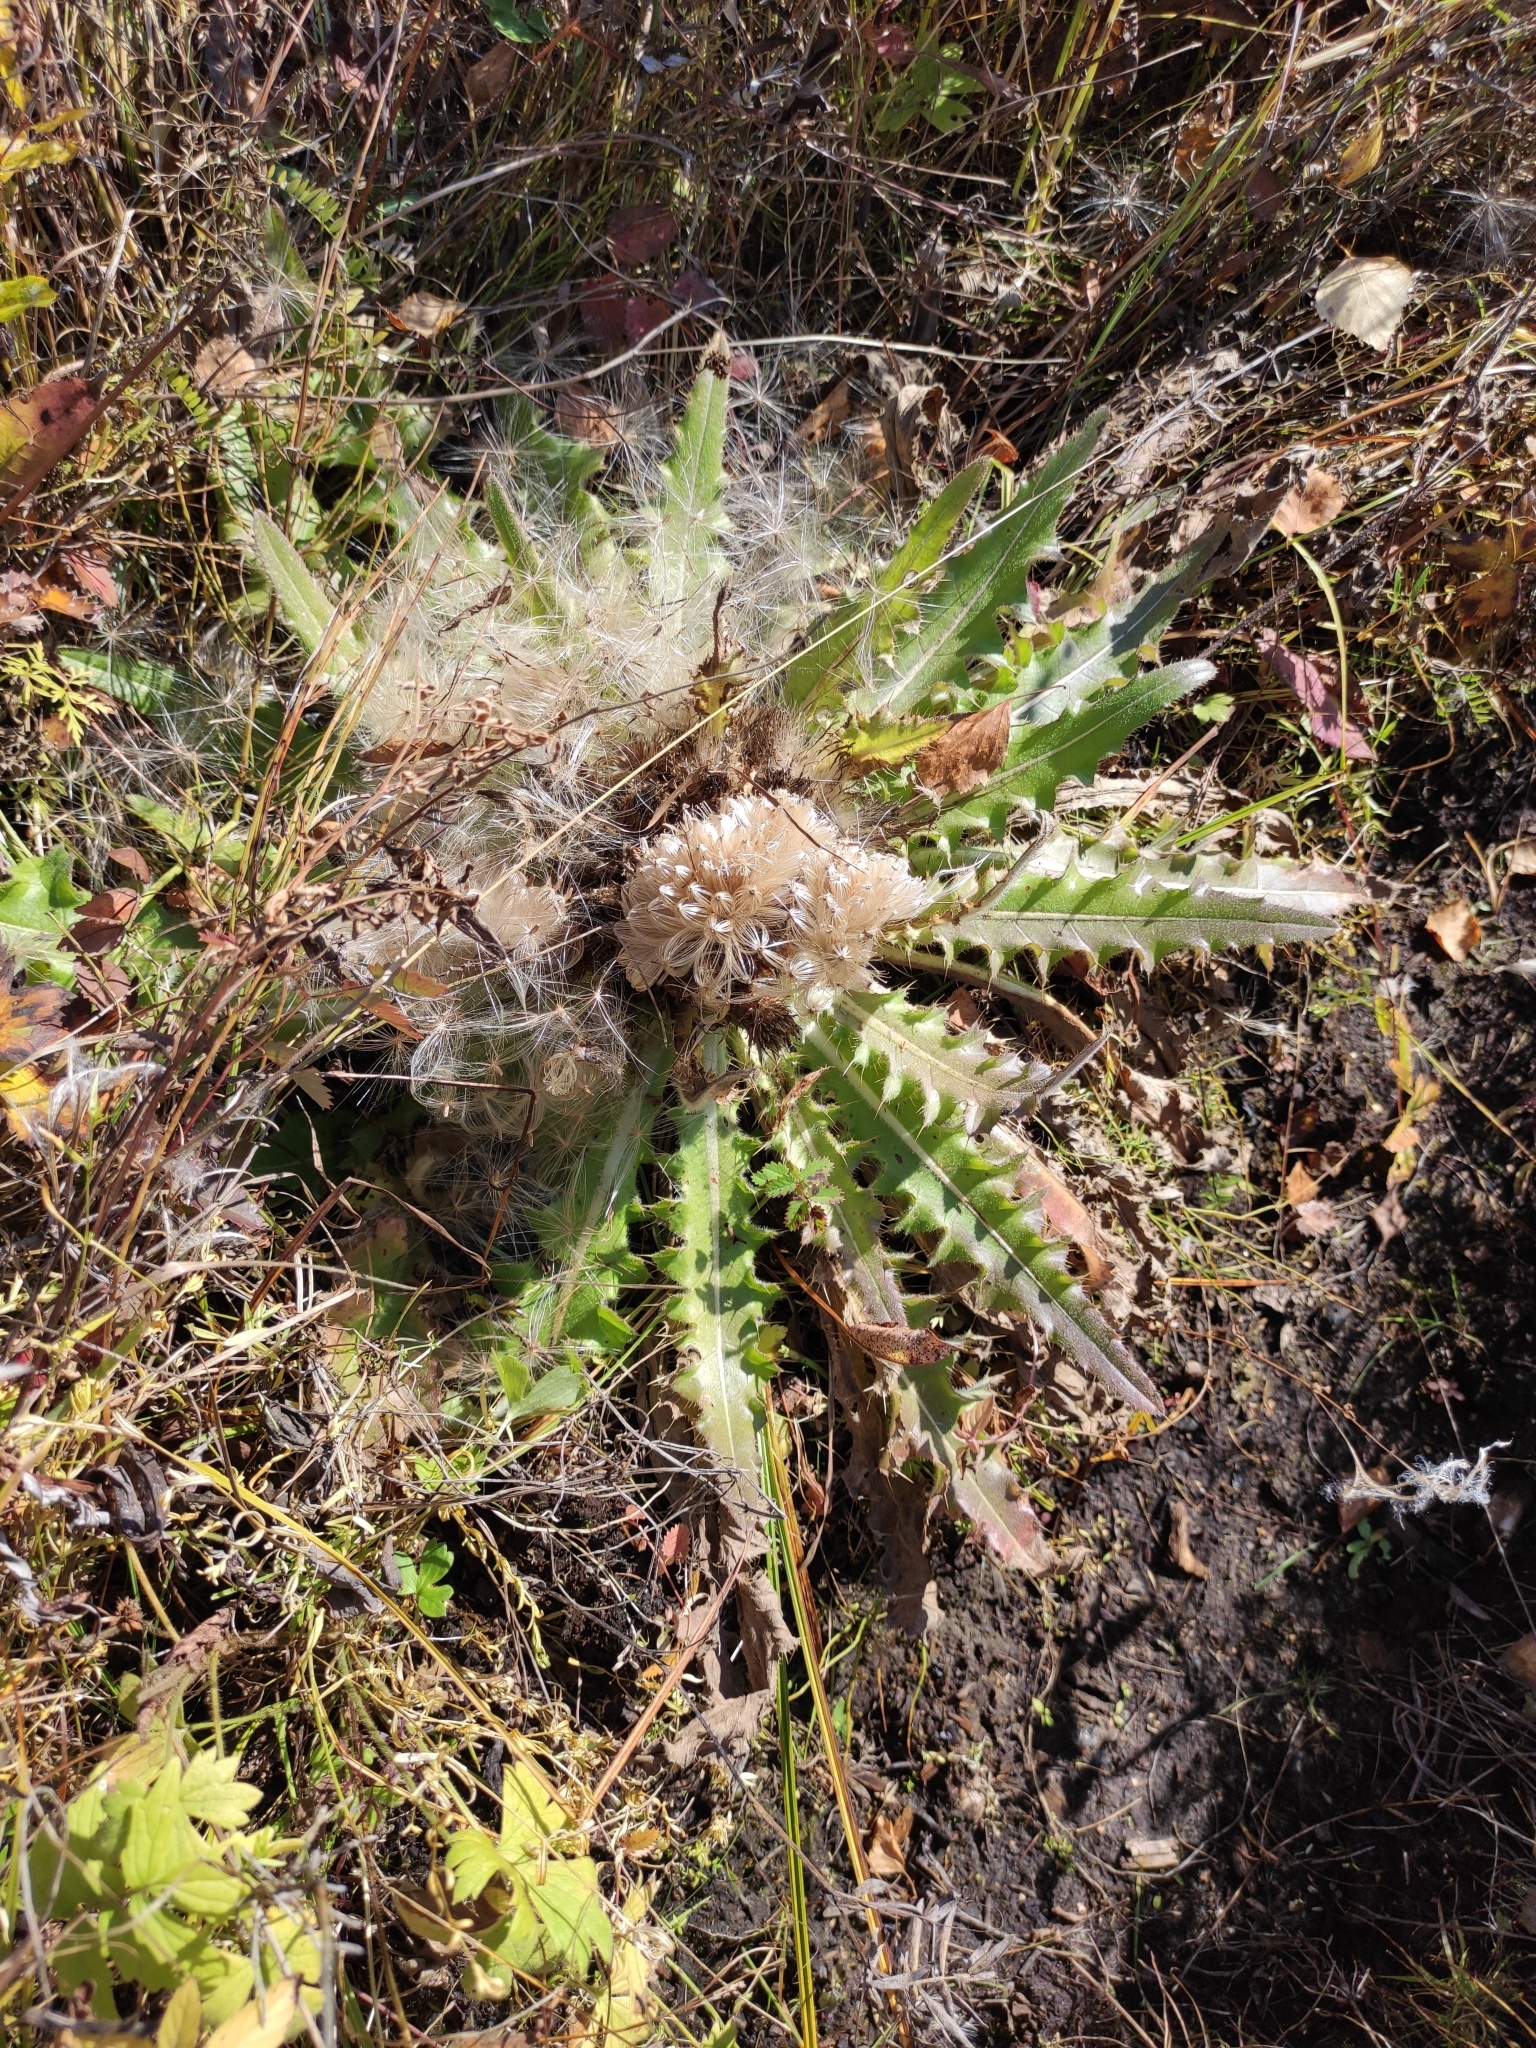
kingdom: Plantae
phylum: Tracheophyta
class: Magnoliopsida
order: Asterales
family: Asteraceae
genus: Cirsium
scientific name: Cirsium esculentum
